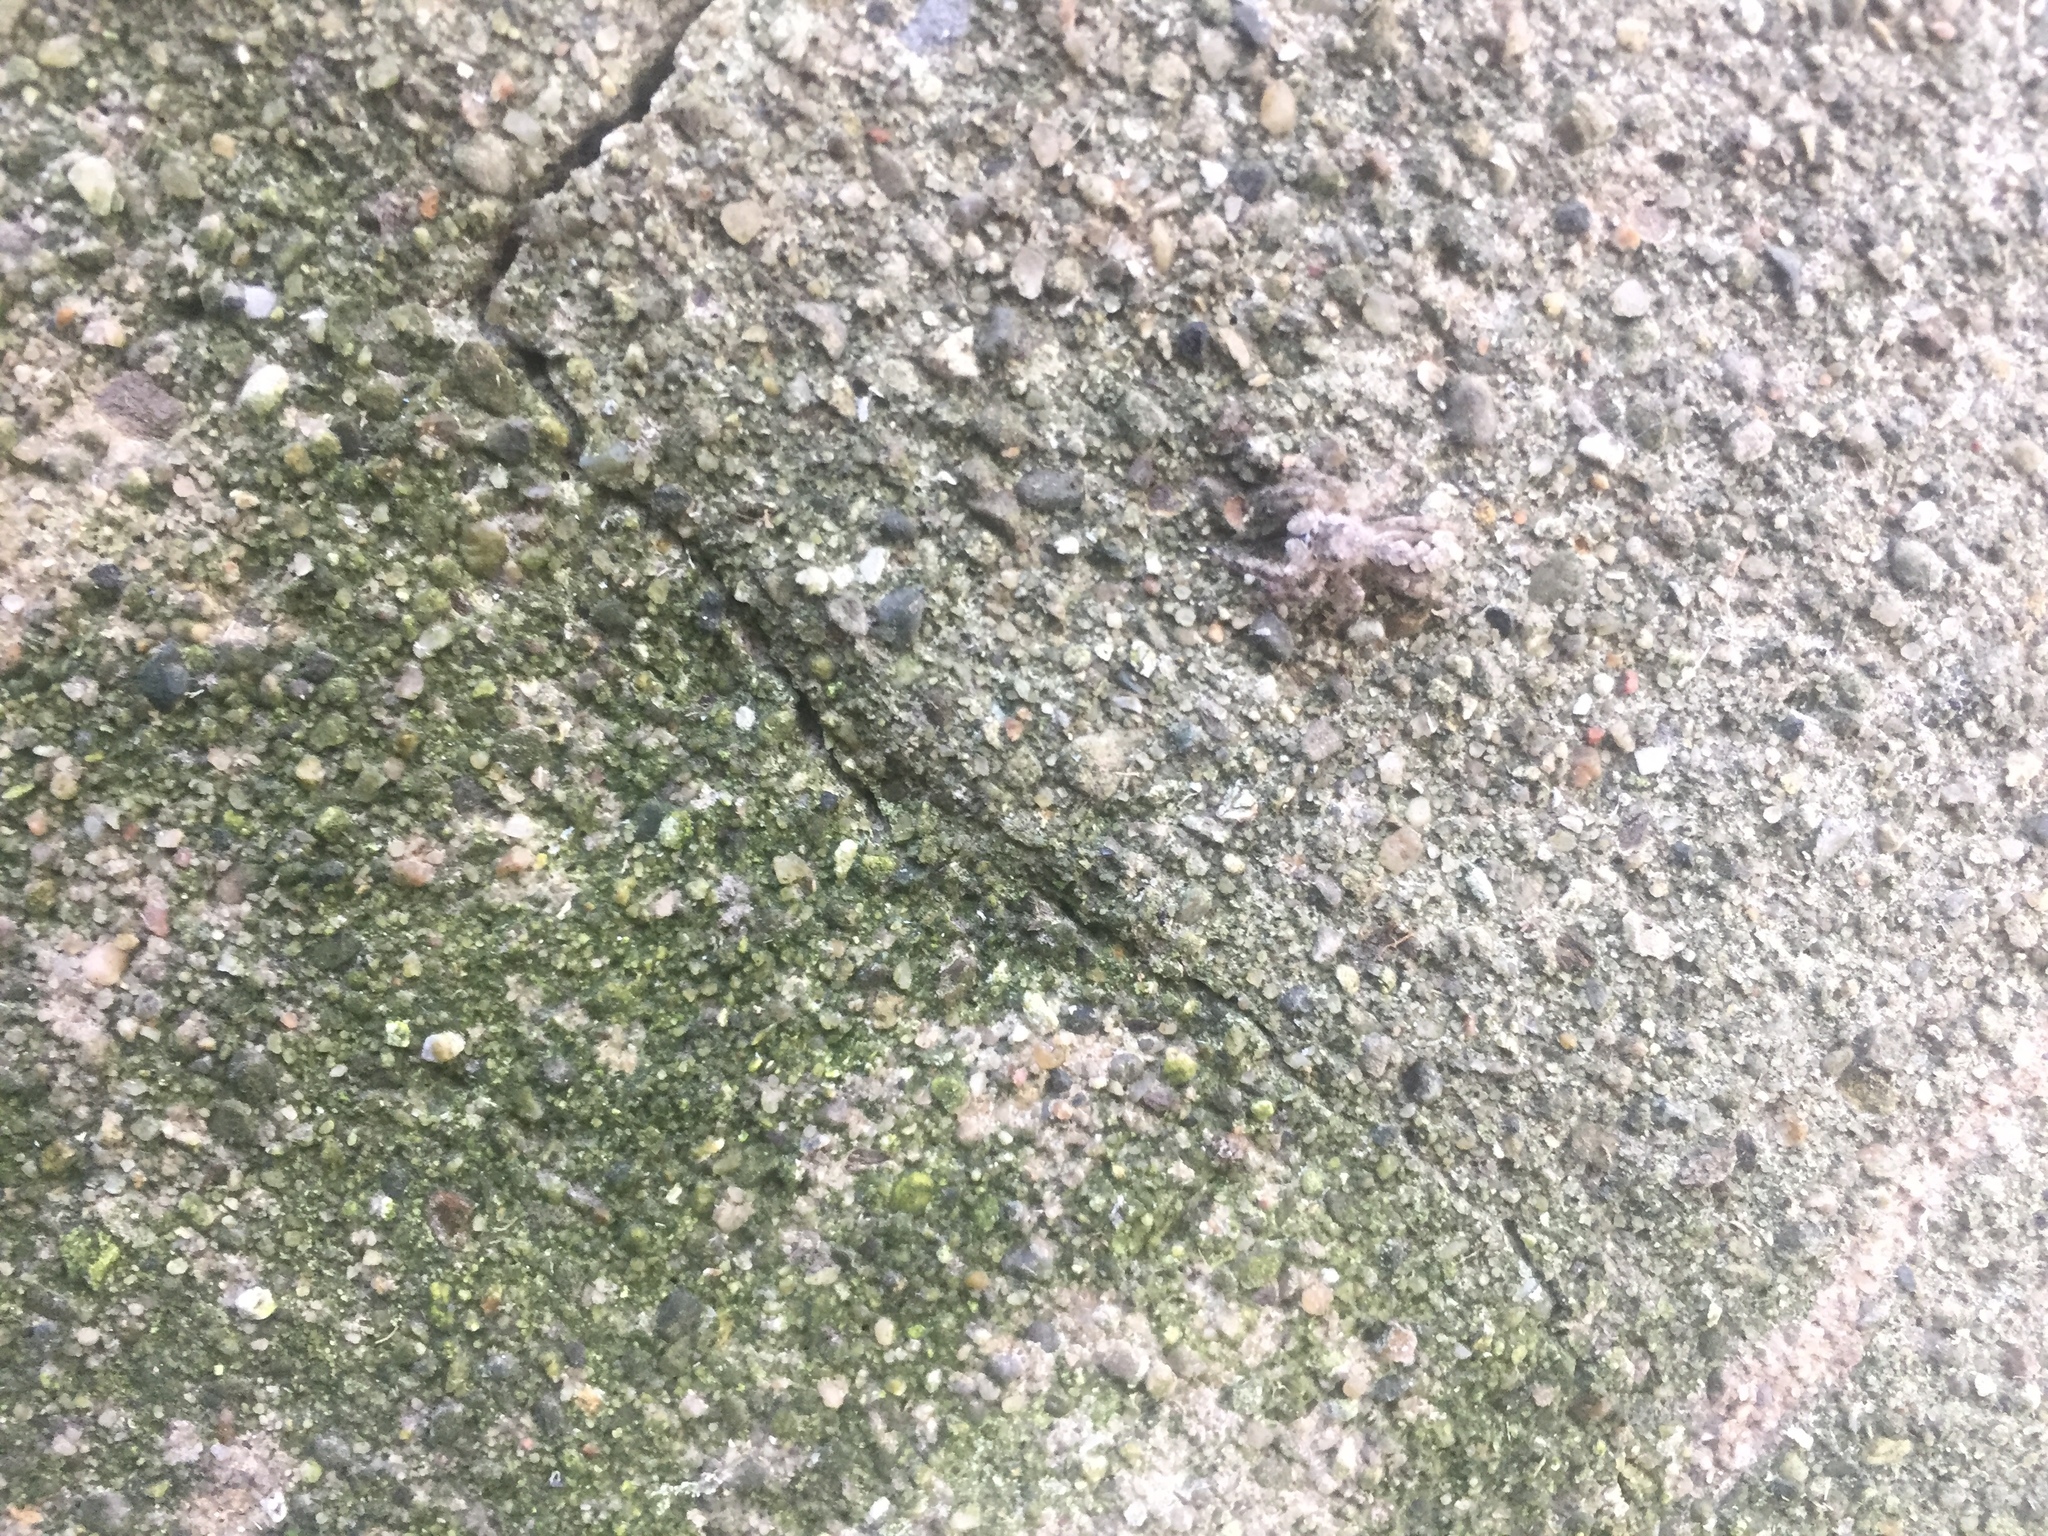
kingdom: Animalia
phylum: Arthropoda
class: Arachnida
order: Araneae
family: Salticidae
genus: Platycryptus
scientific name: Platycryptus undatus
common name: Tan jumping spider
